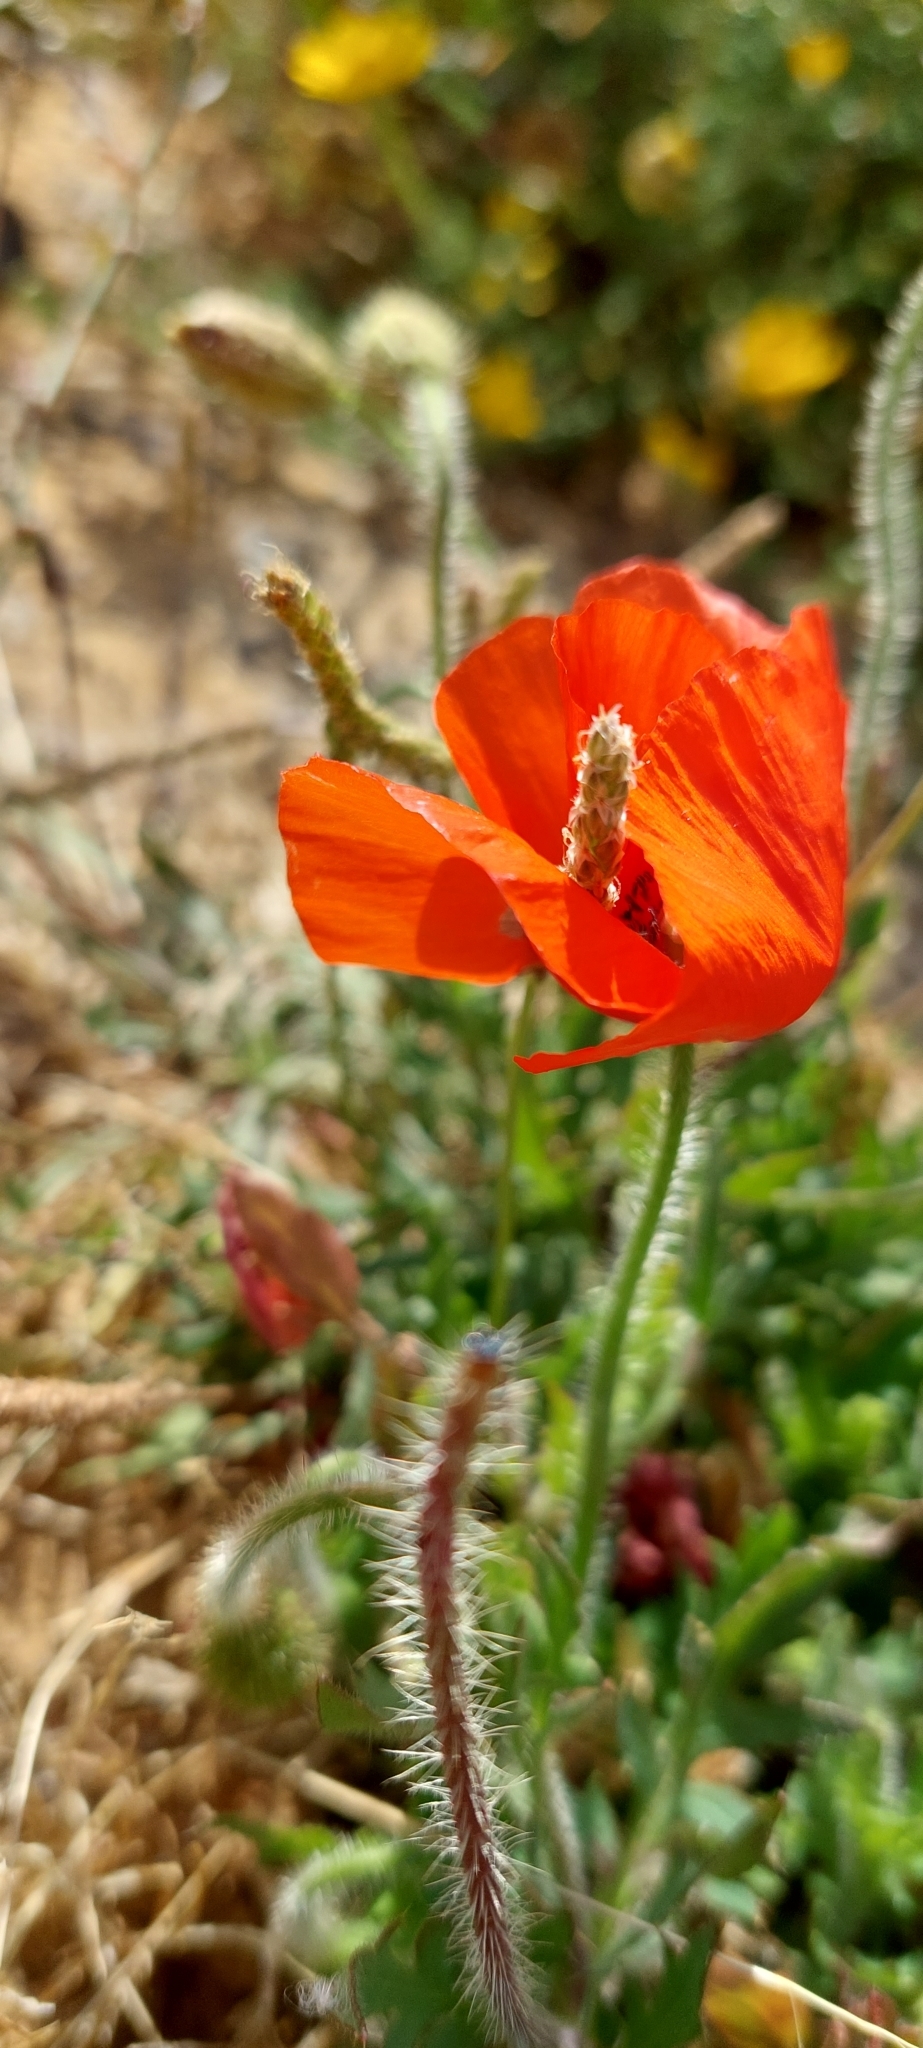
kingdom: Plantae
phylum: Tracheophyta
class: Magnoliopsida
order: Ranunculales
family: Papaveraceae
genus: Papaver
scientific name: Papaver rhoeas
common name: Corn poppy
